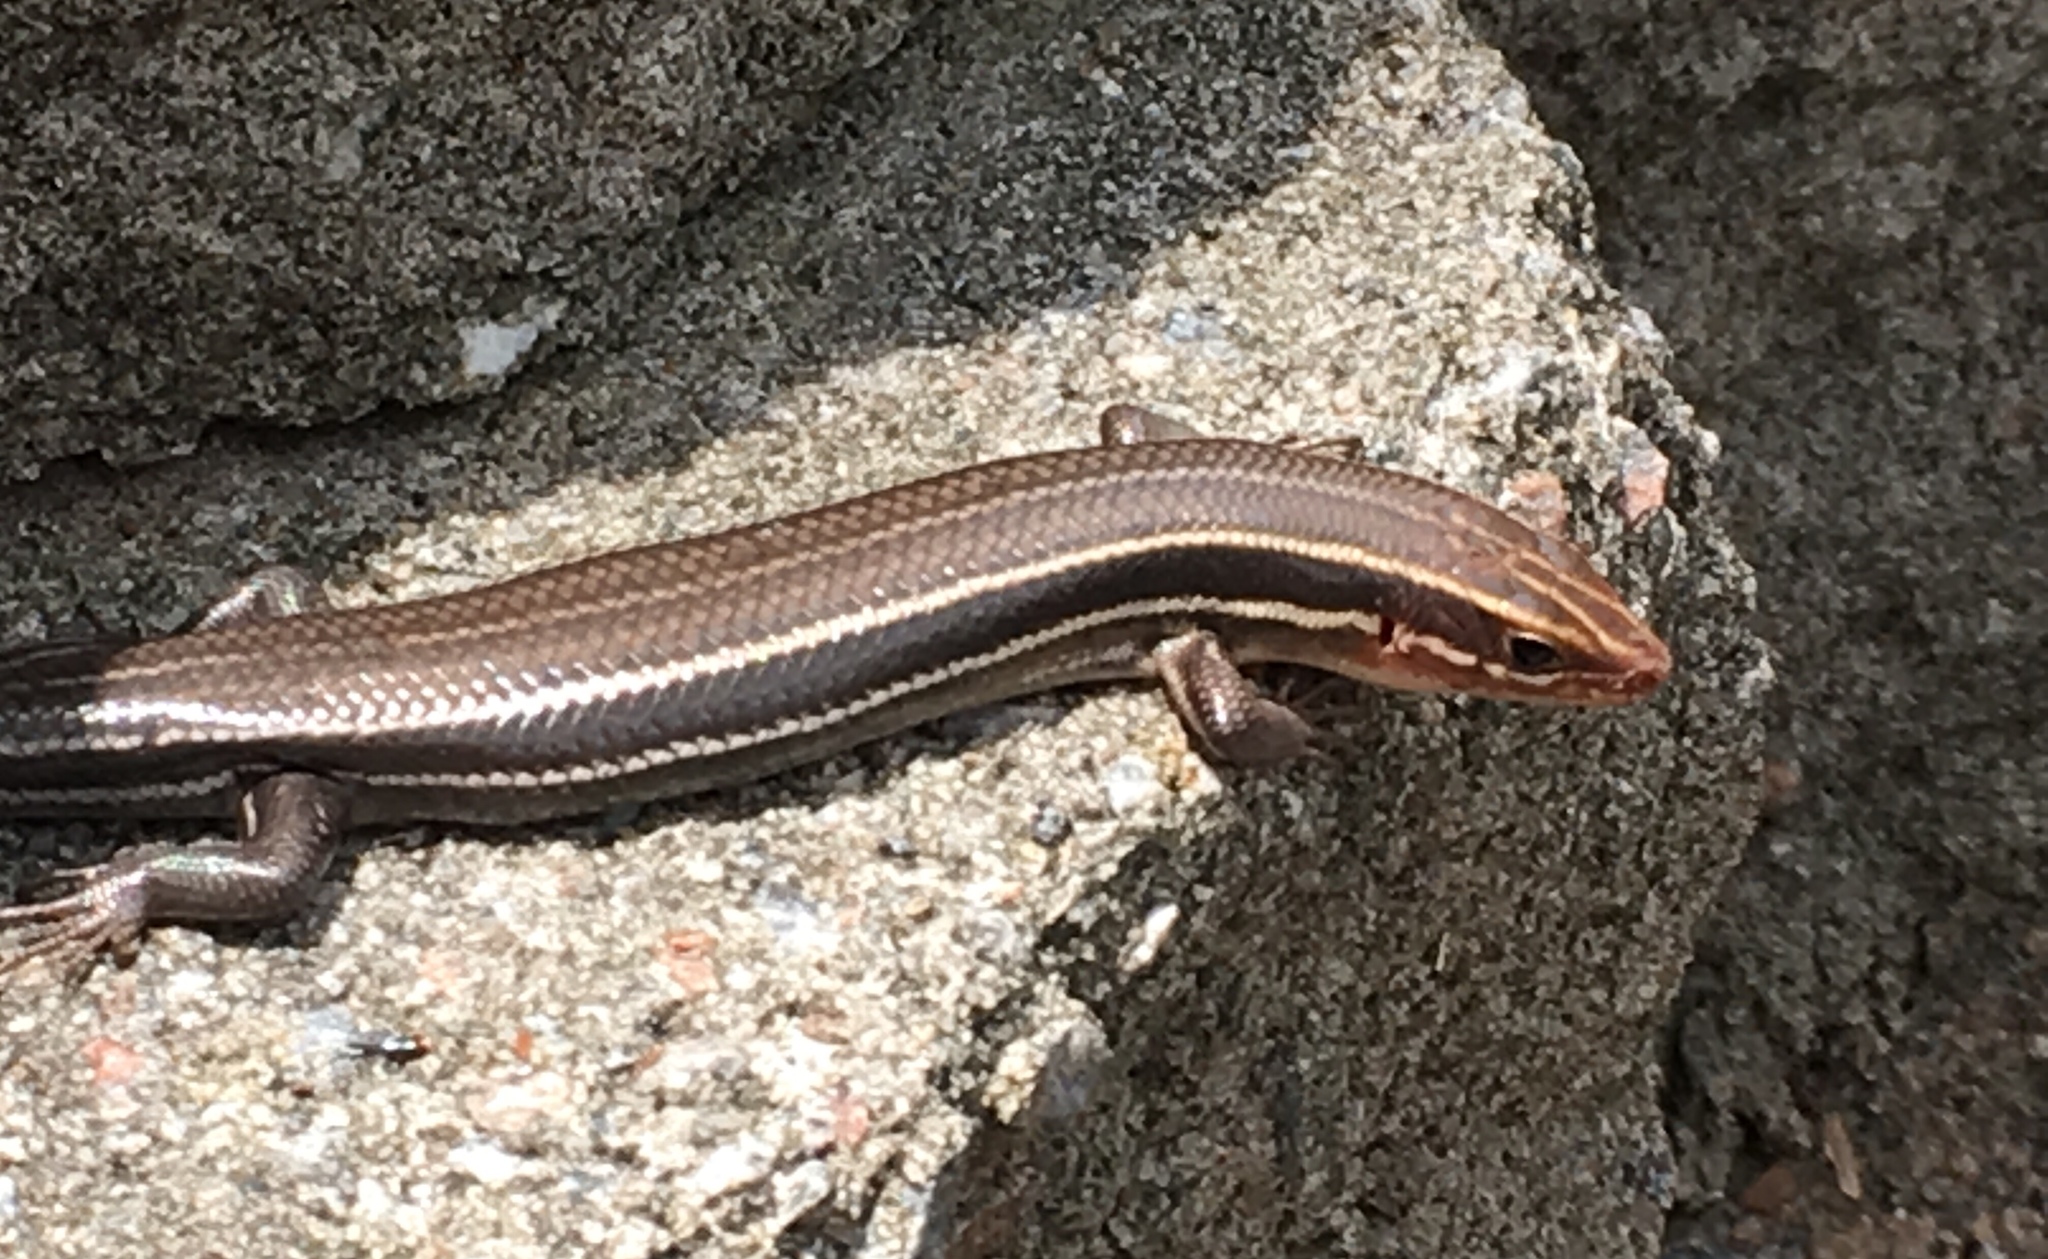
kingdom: Animalia
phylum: Chordata
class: Squamata
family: Scincidae
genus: Plestiodon
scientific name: Plestiodon inexpectatus
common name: Southeastern five-lined skink
